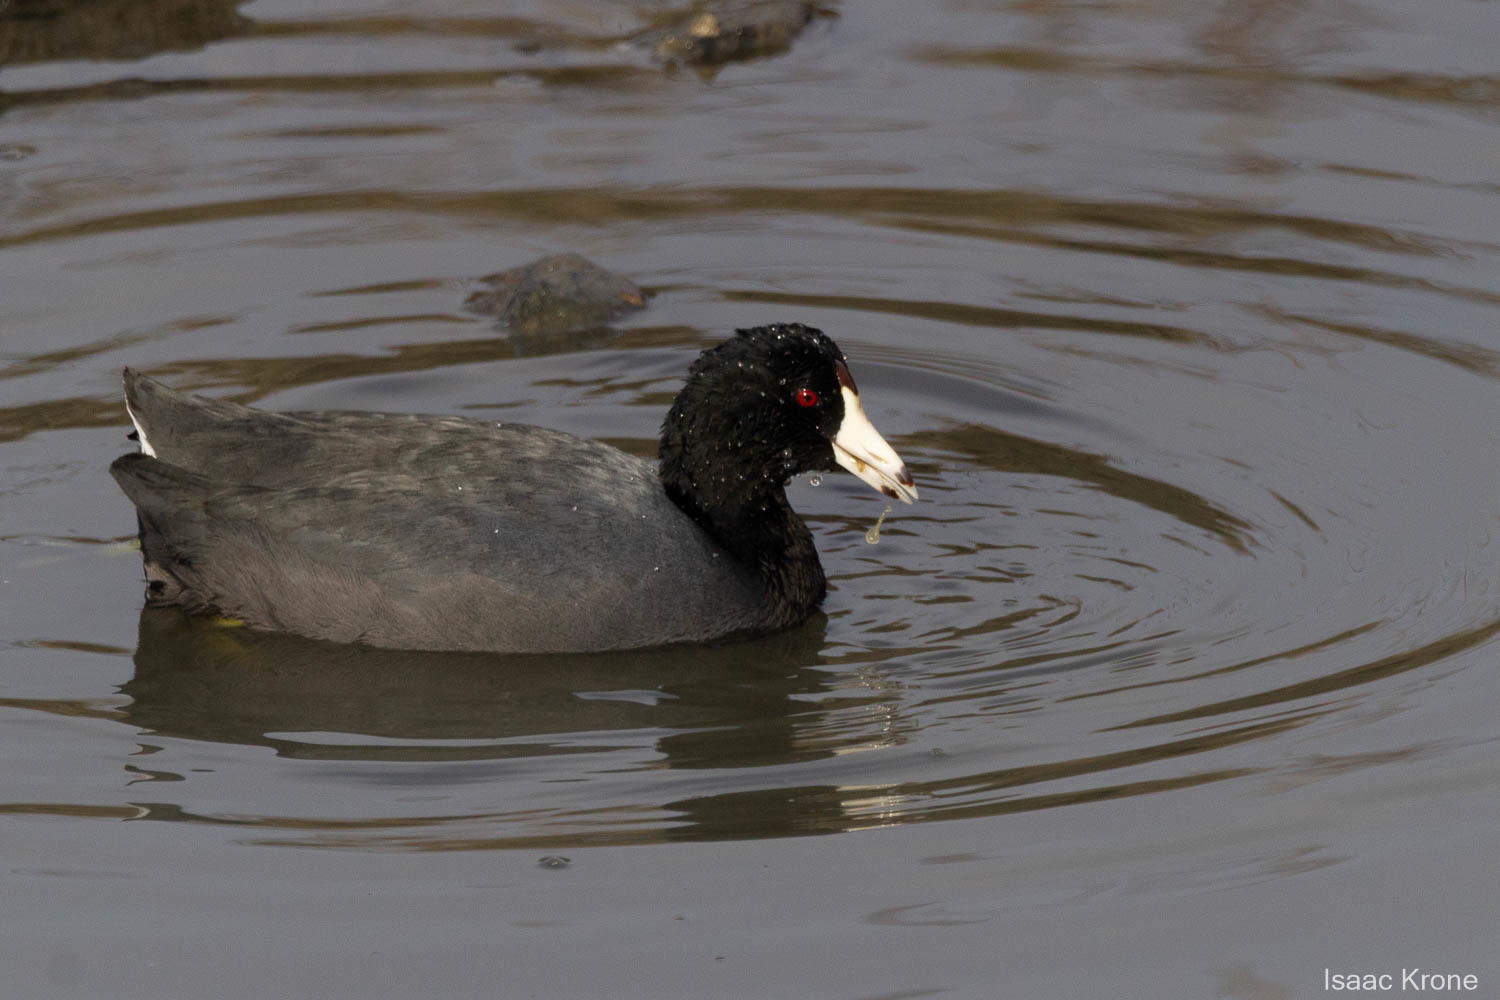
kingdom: Animalia
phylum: Chordata
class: Aves
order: Gruiformes
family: Rallidae
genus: Fulica
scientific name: Fulica americana
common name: American coot
